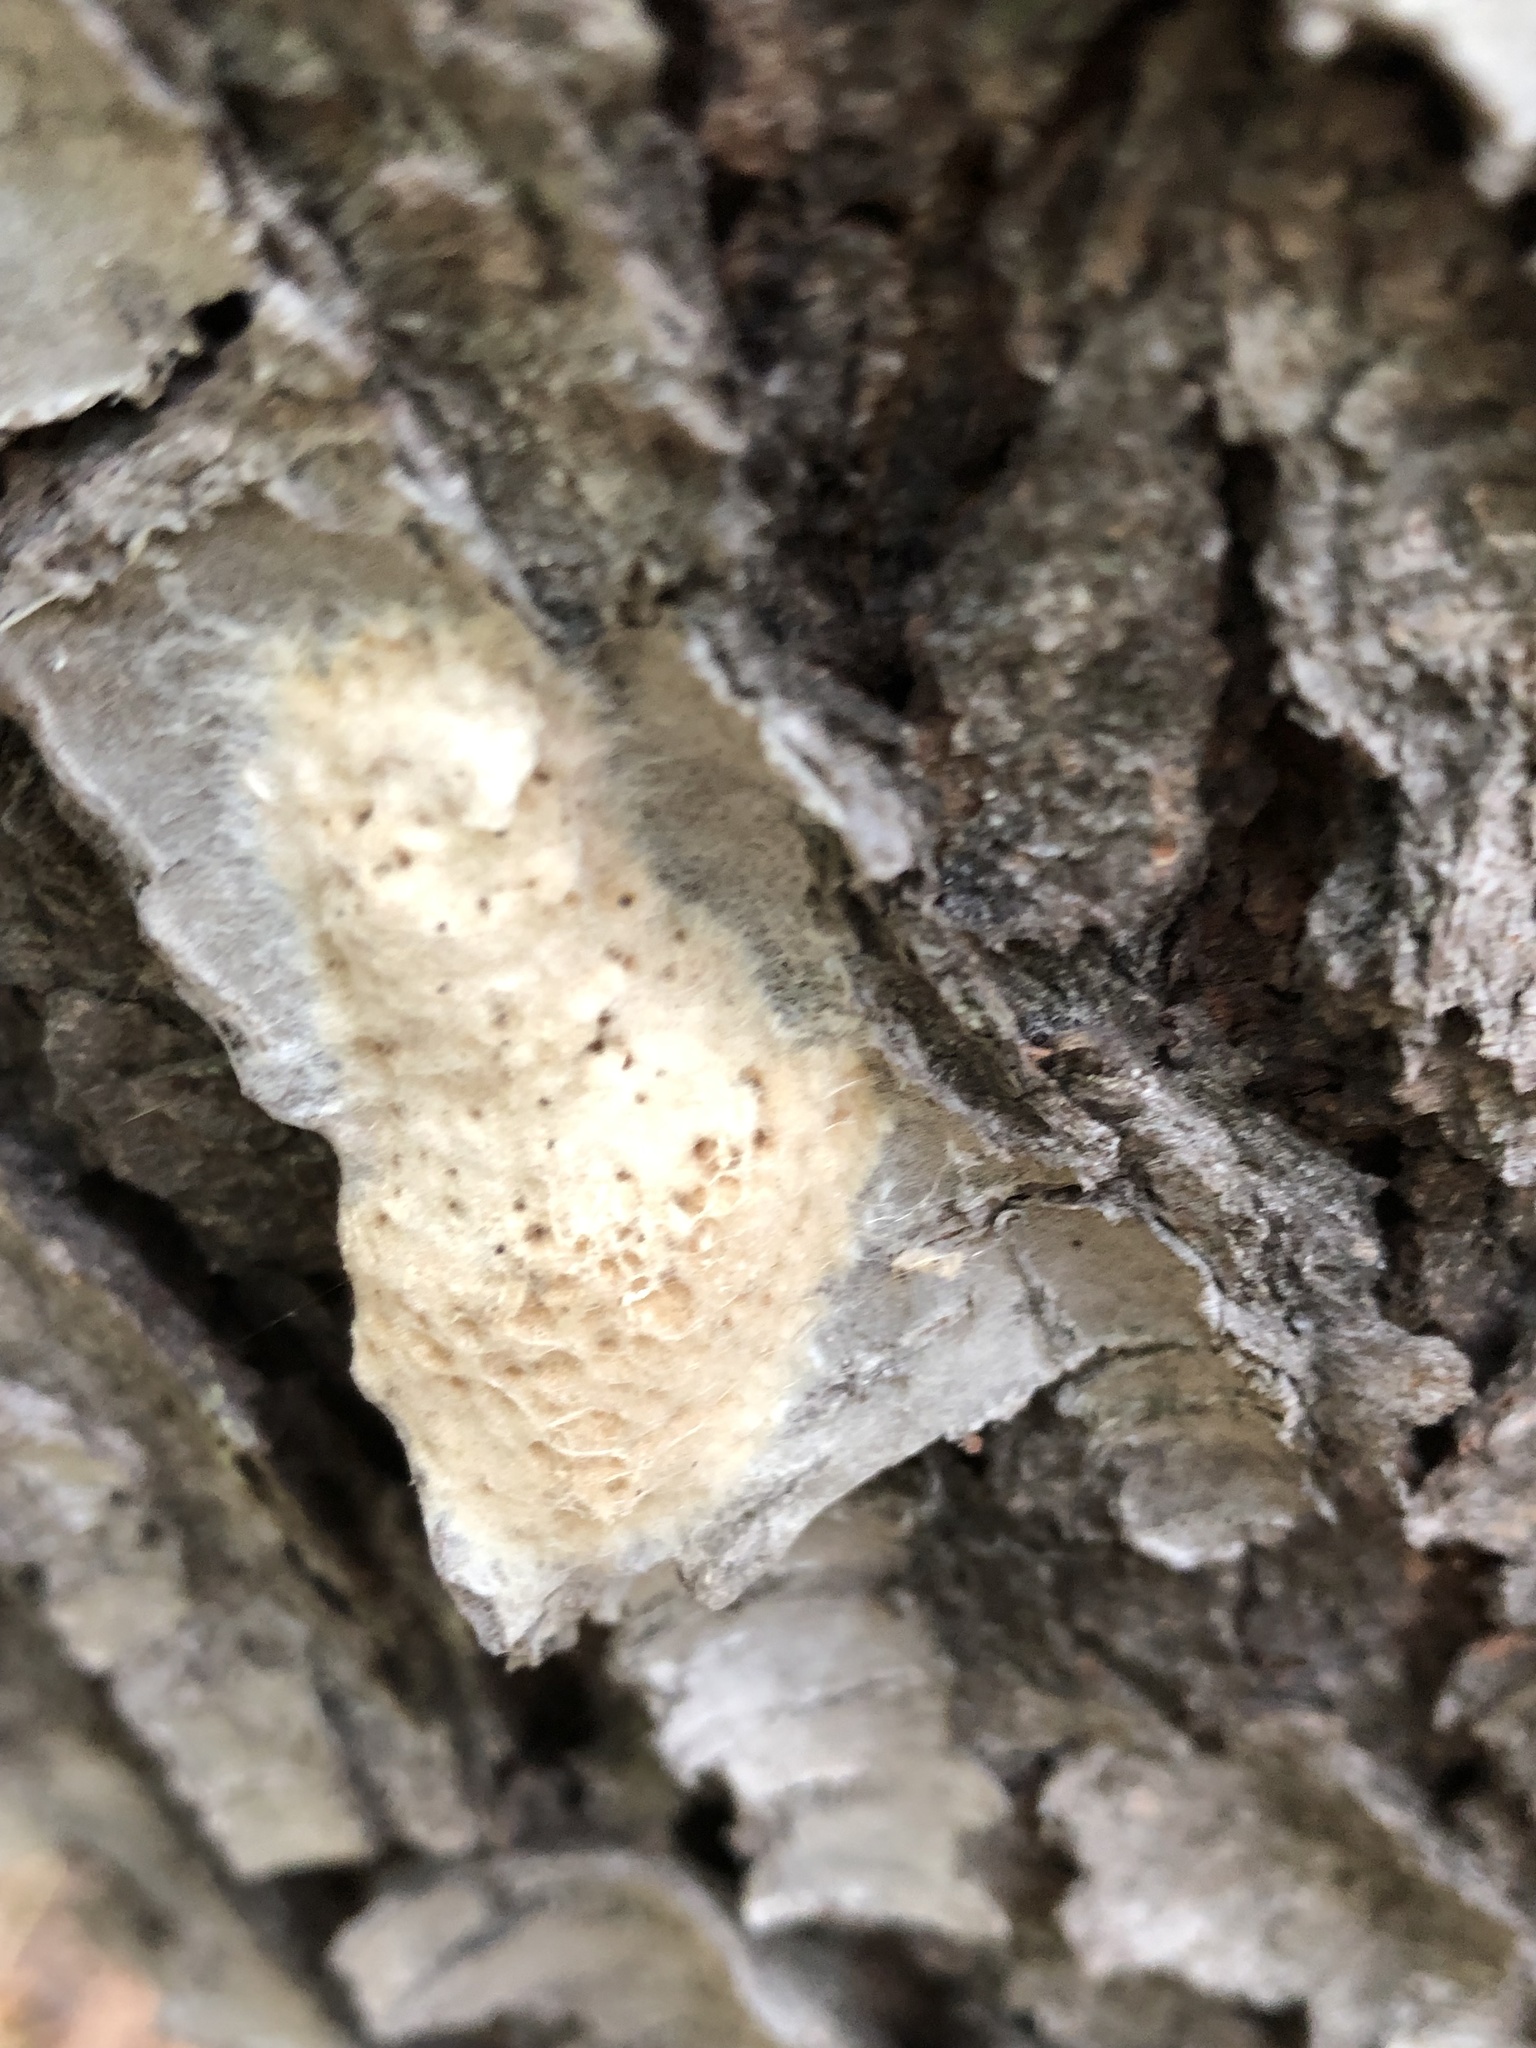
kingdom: Animalia
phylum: Arthropoda
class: Insecta
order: Lepidoptera
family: Erebidae
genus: Lymantria
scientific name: Lymantria dispar
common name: Gypsy moth
